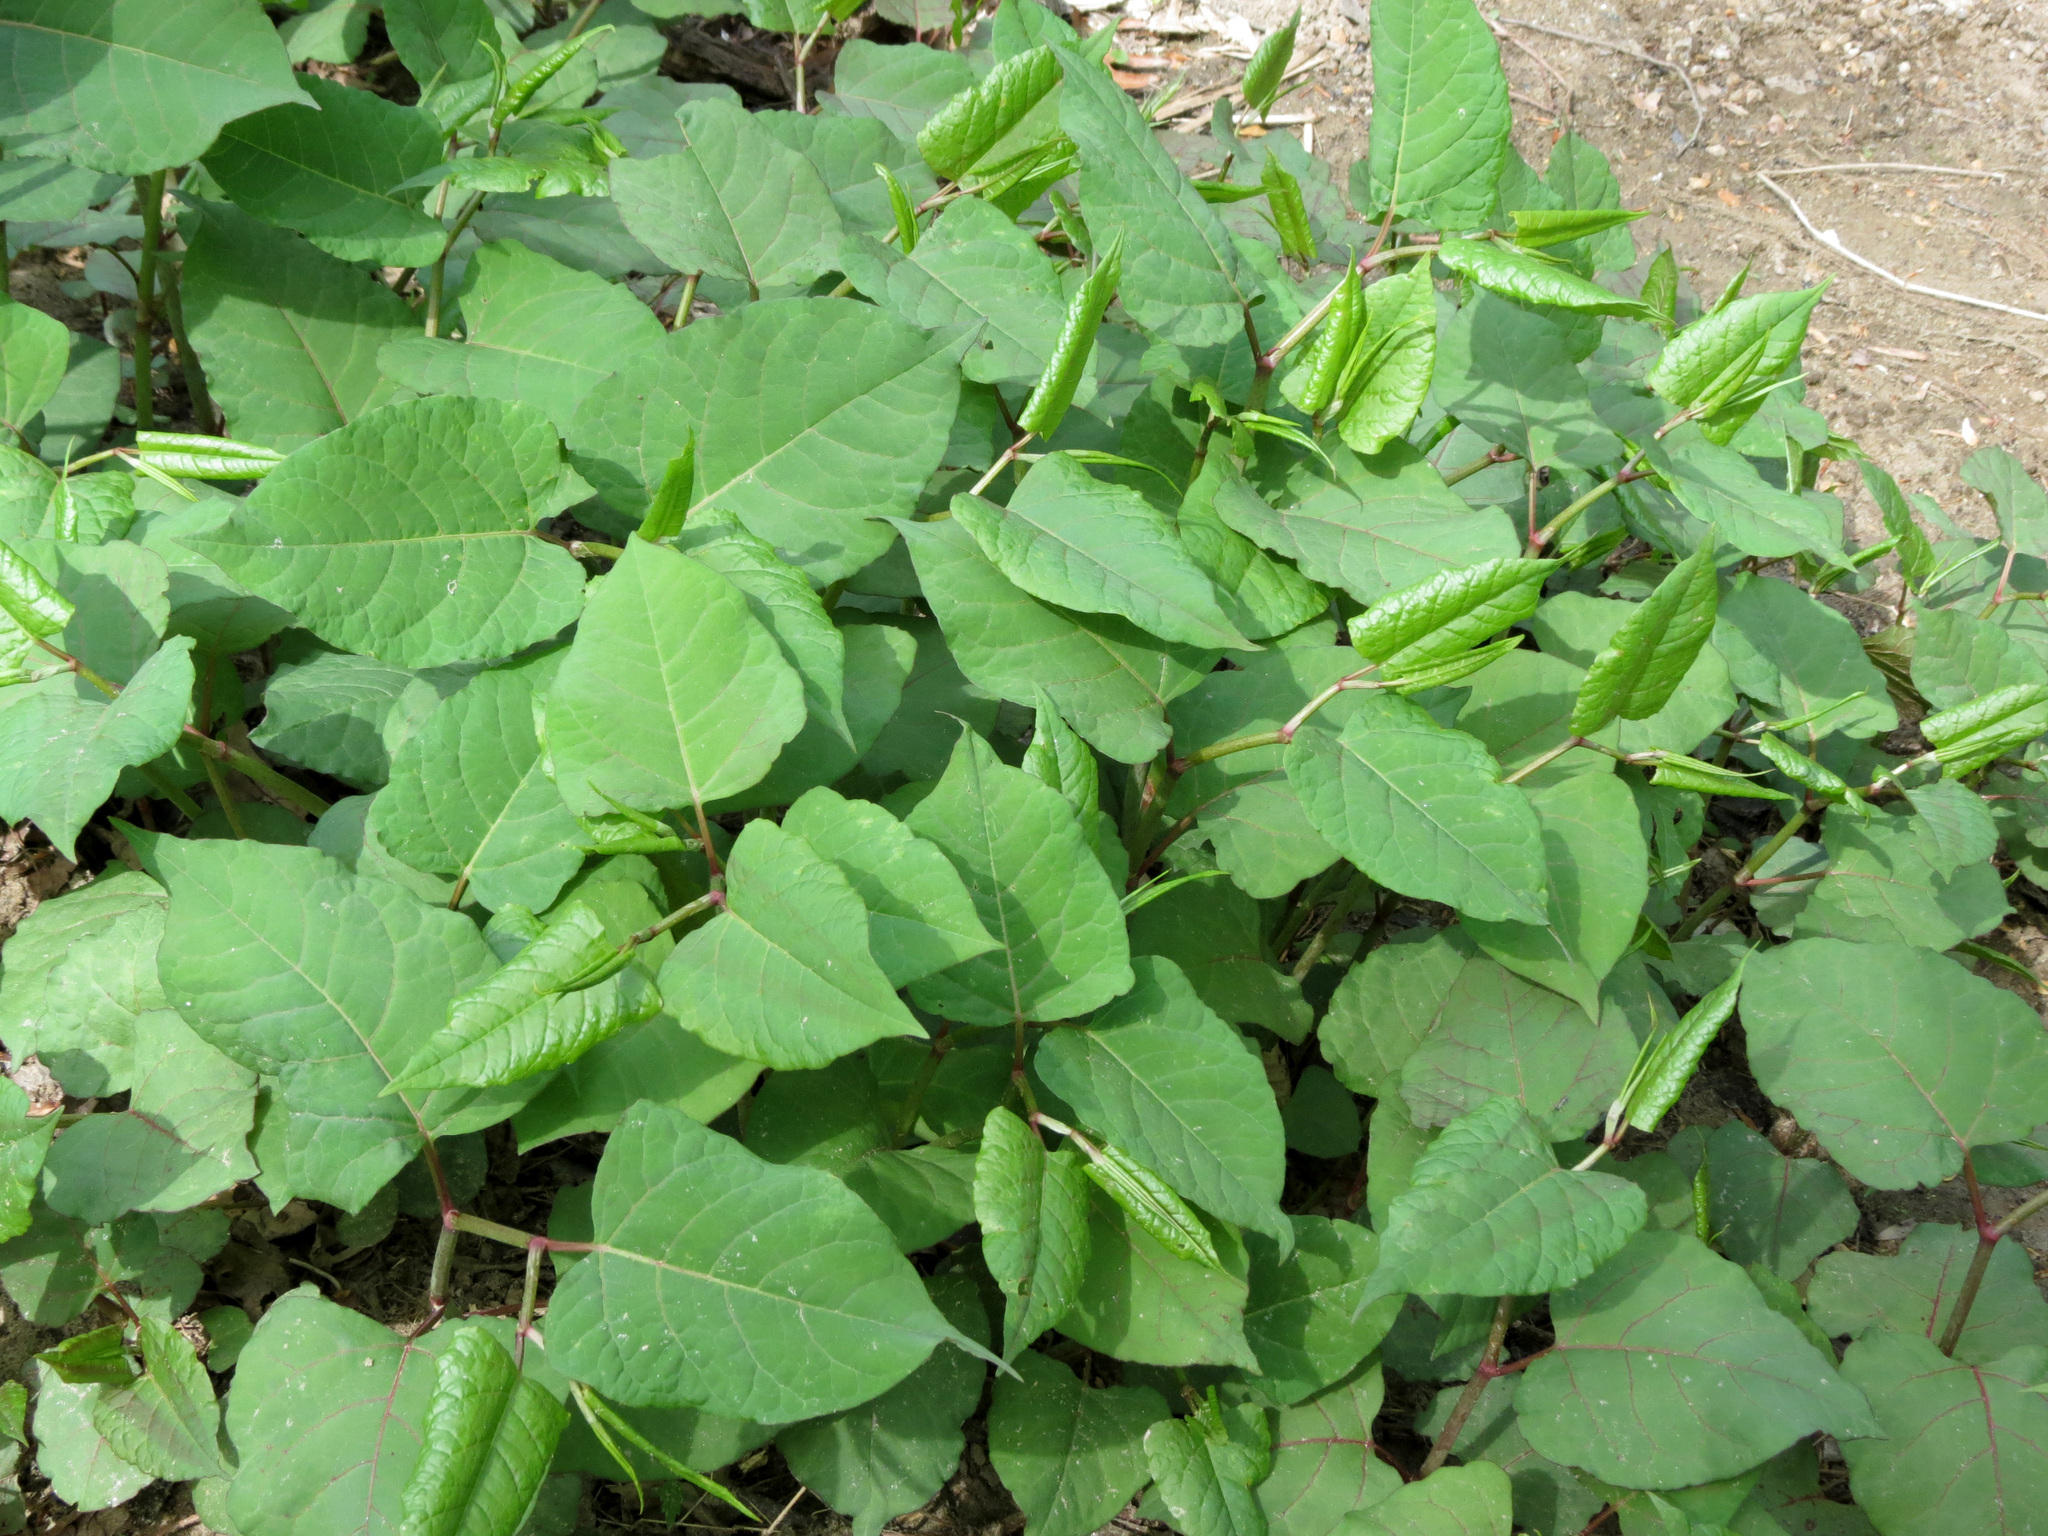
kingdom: Plantae
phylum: Tracheophyta
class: Magnoliopsida
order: Caryophyllales
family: Polygonaceae
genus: Reynoutria
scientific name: Reynoutria japonica
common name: Japanese knotweed
